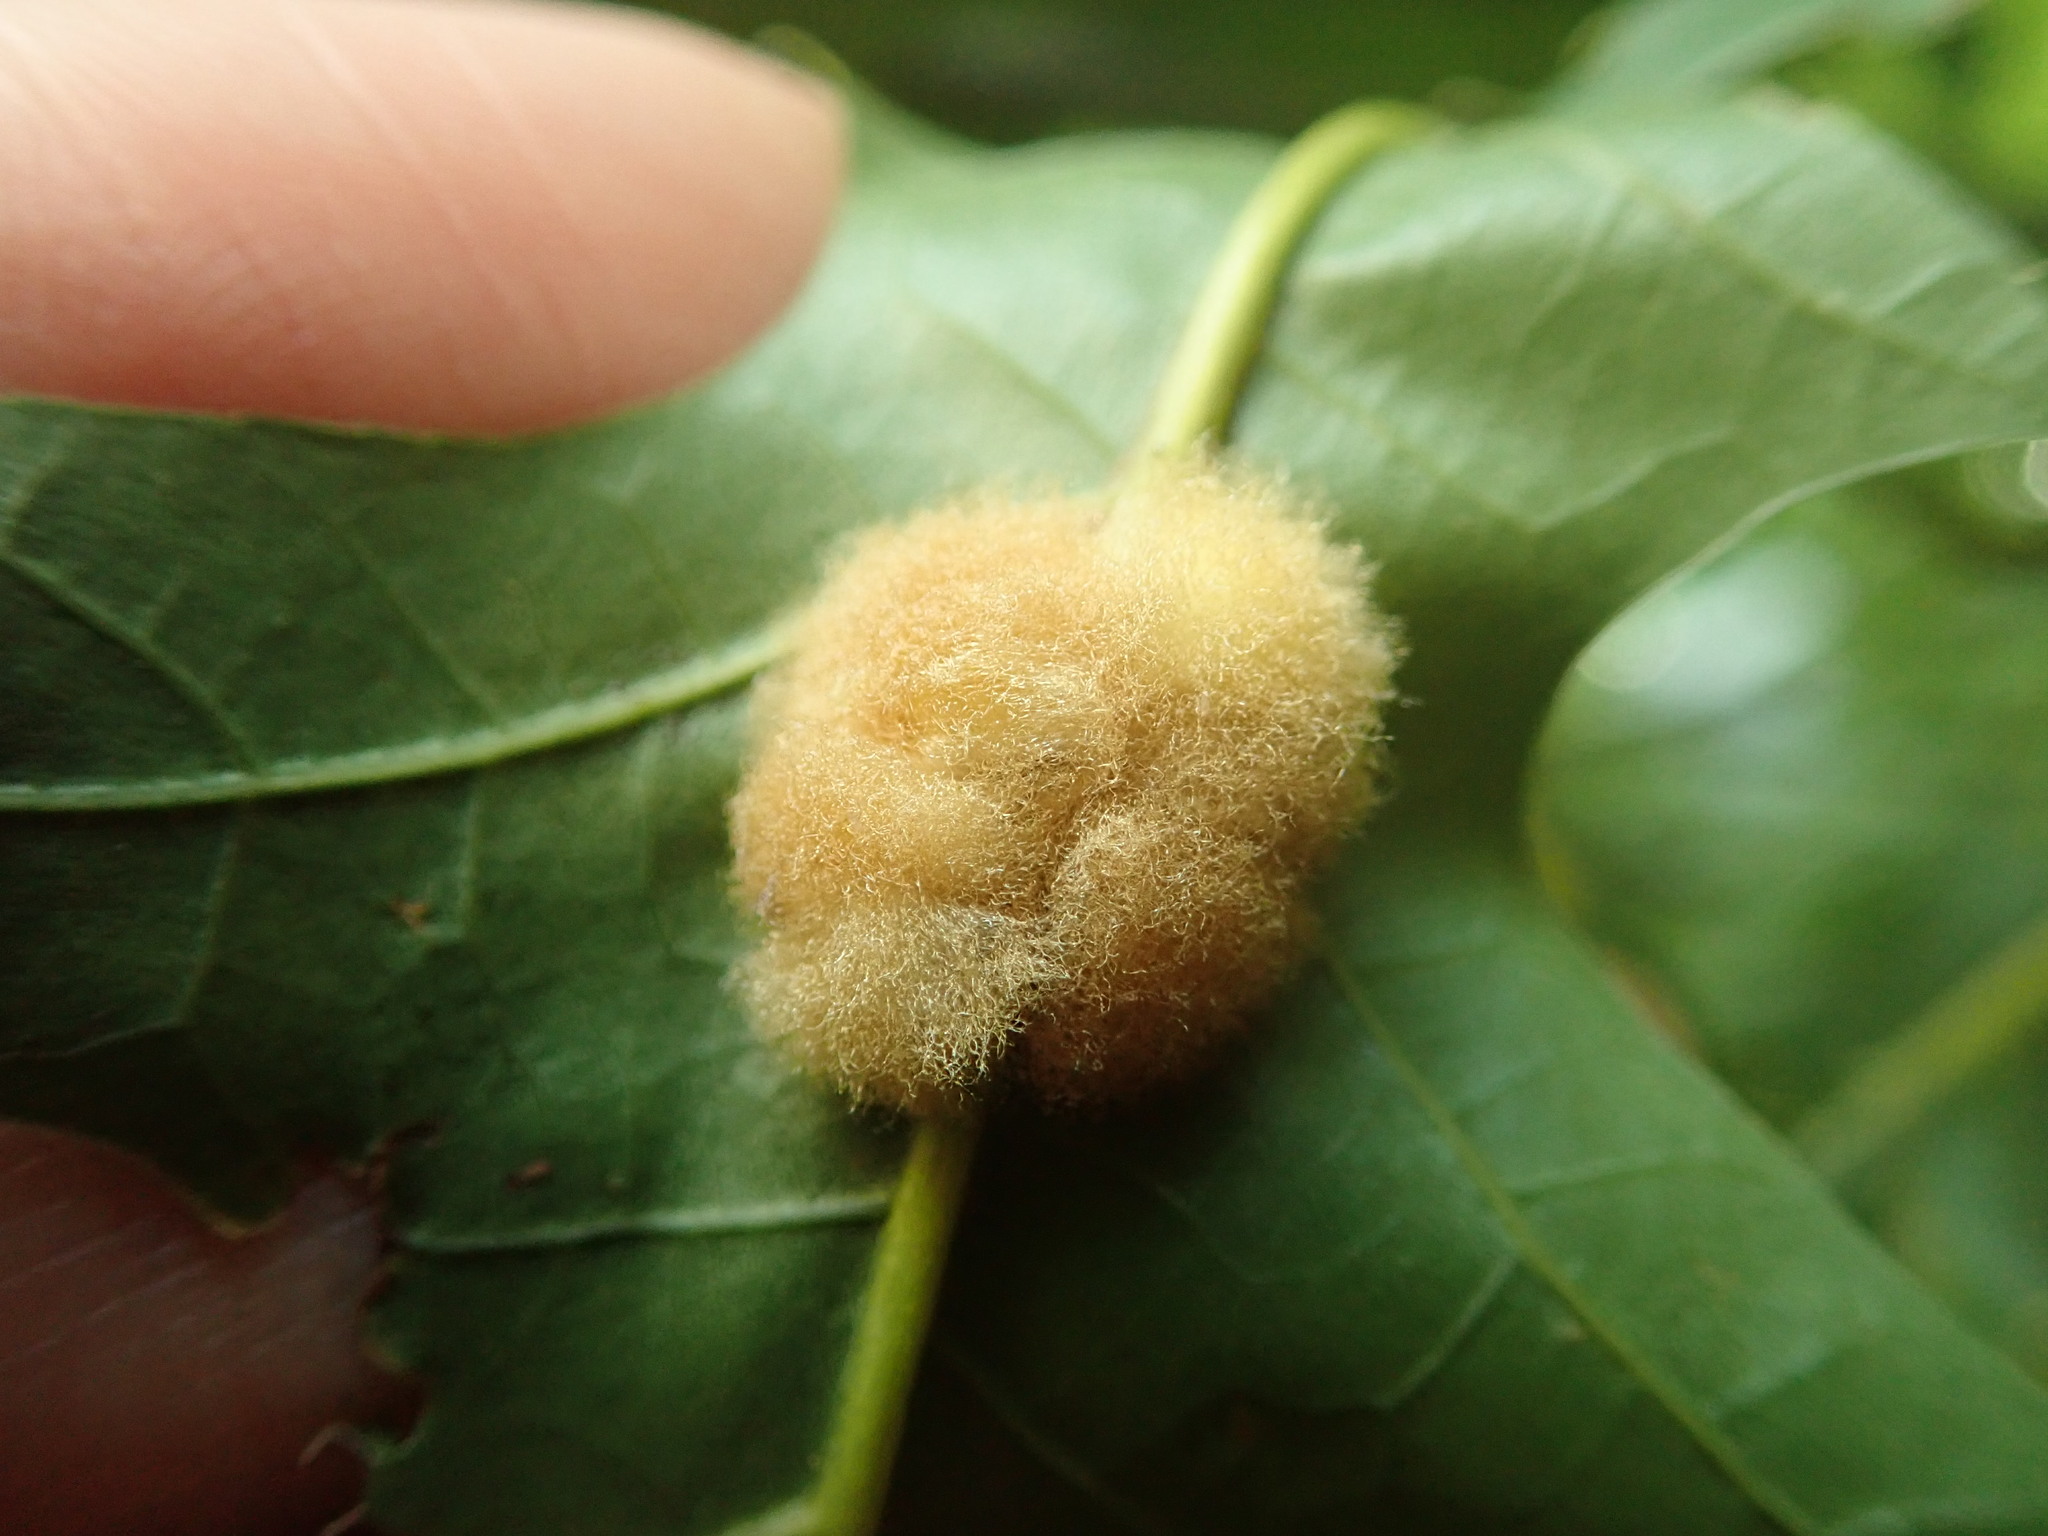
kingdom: Animalia
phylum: Arthropoda
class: Insecta
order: Hymenoptera
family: Cynipidae
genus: Callirhytis
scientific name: Callirhytis
